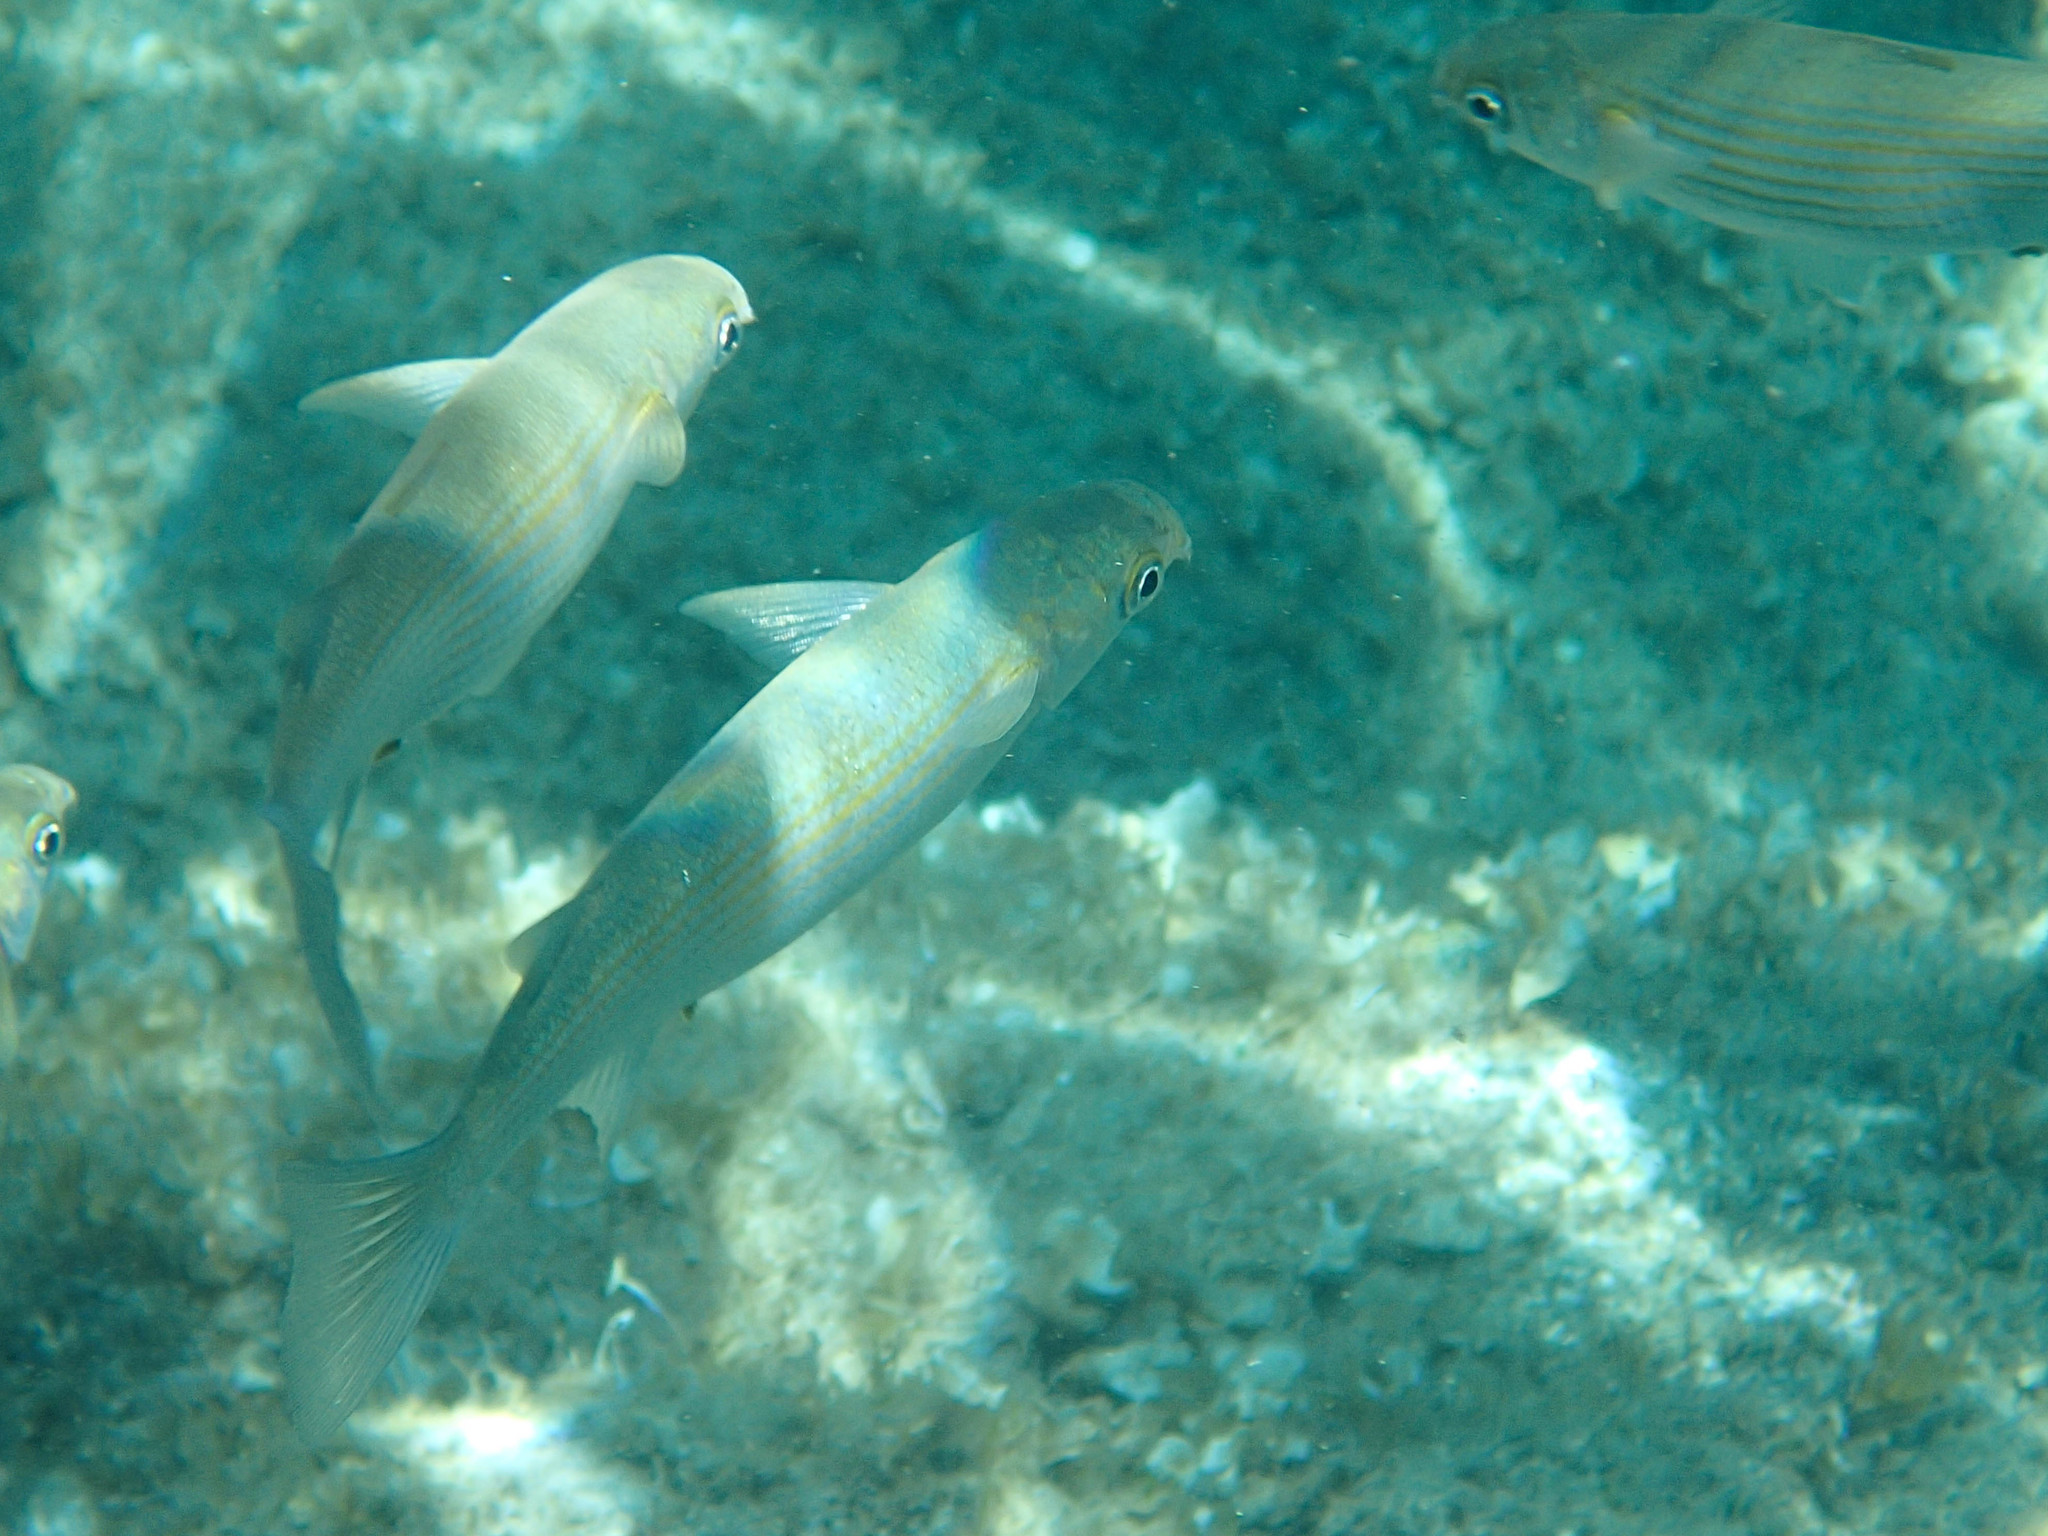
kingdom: Animalia
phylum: Chordata
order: Mugiliformes
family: Mugilidae
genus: Oedalechilus
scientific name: Oedalechilus labeo
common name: Boxlip mullet
